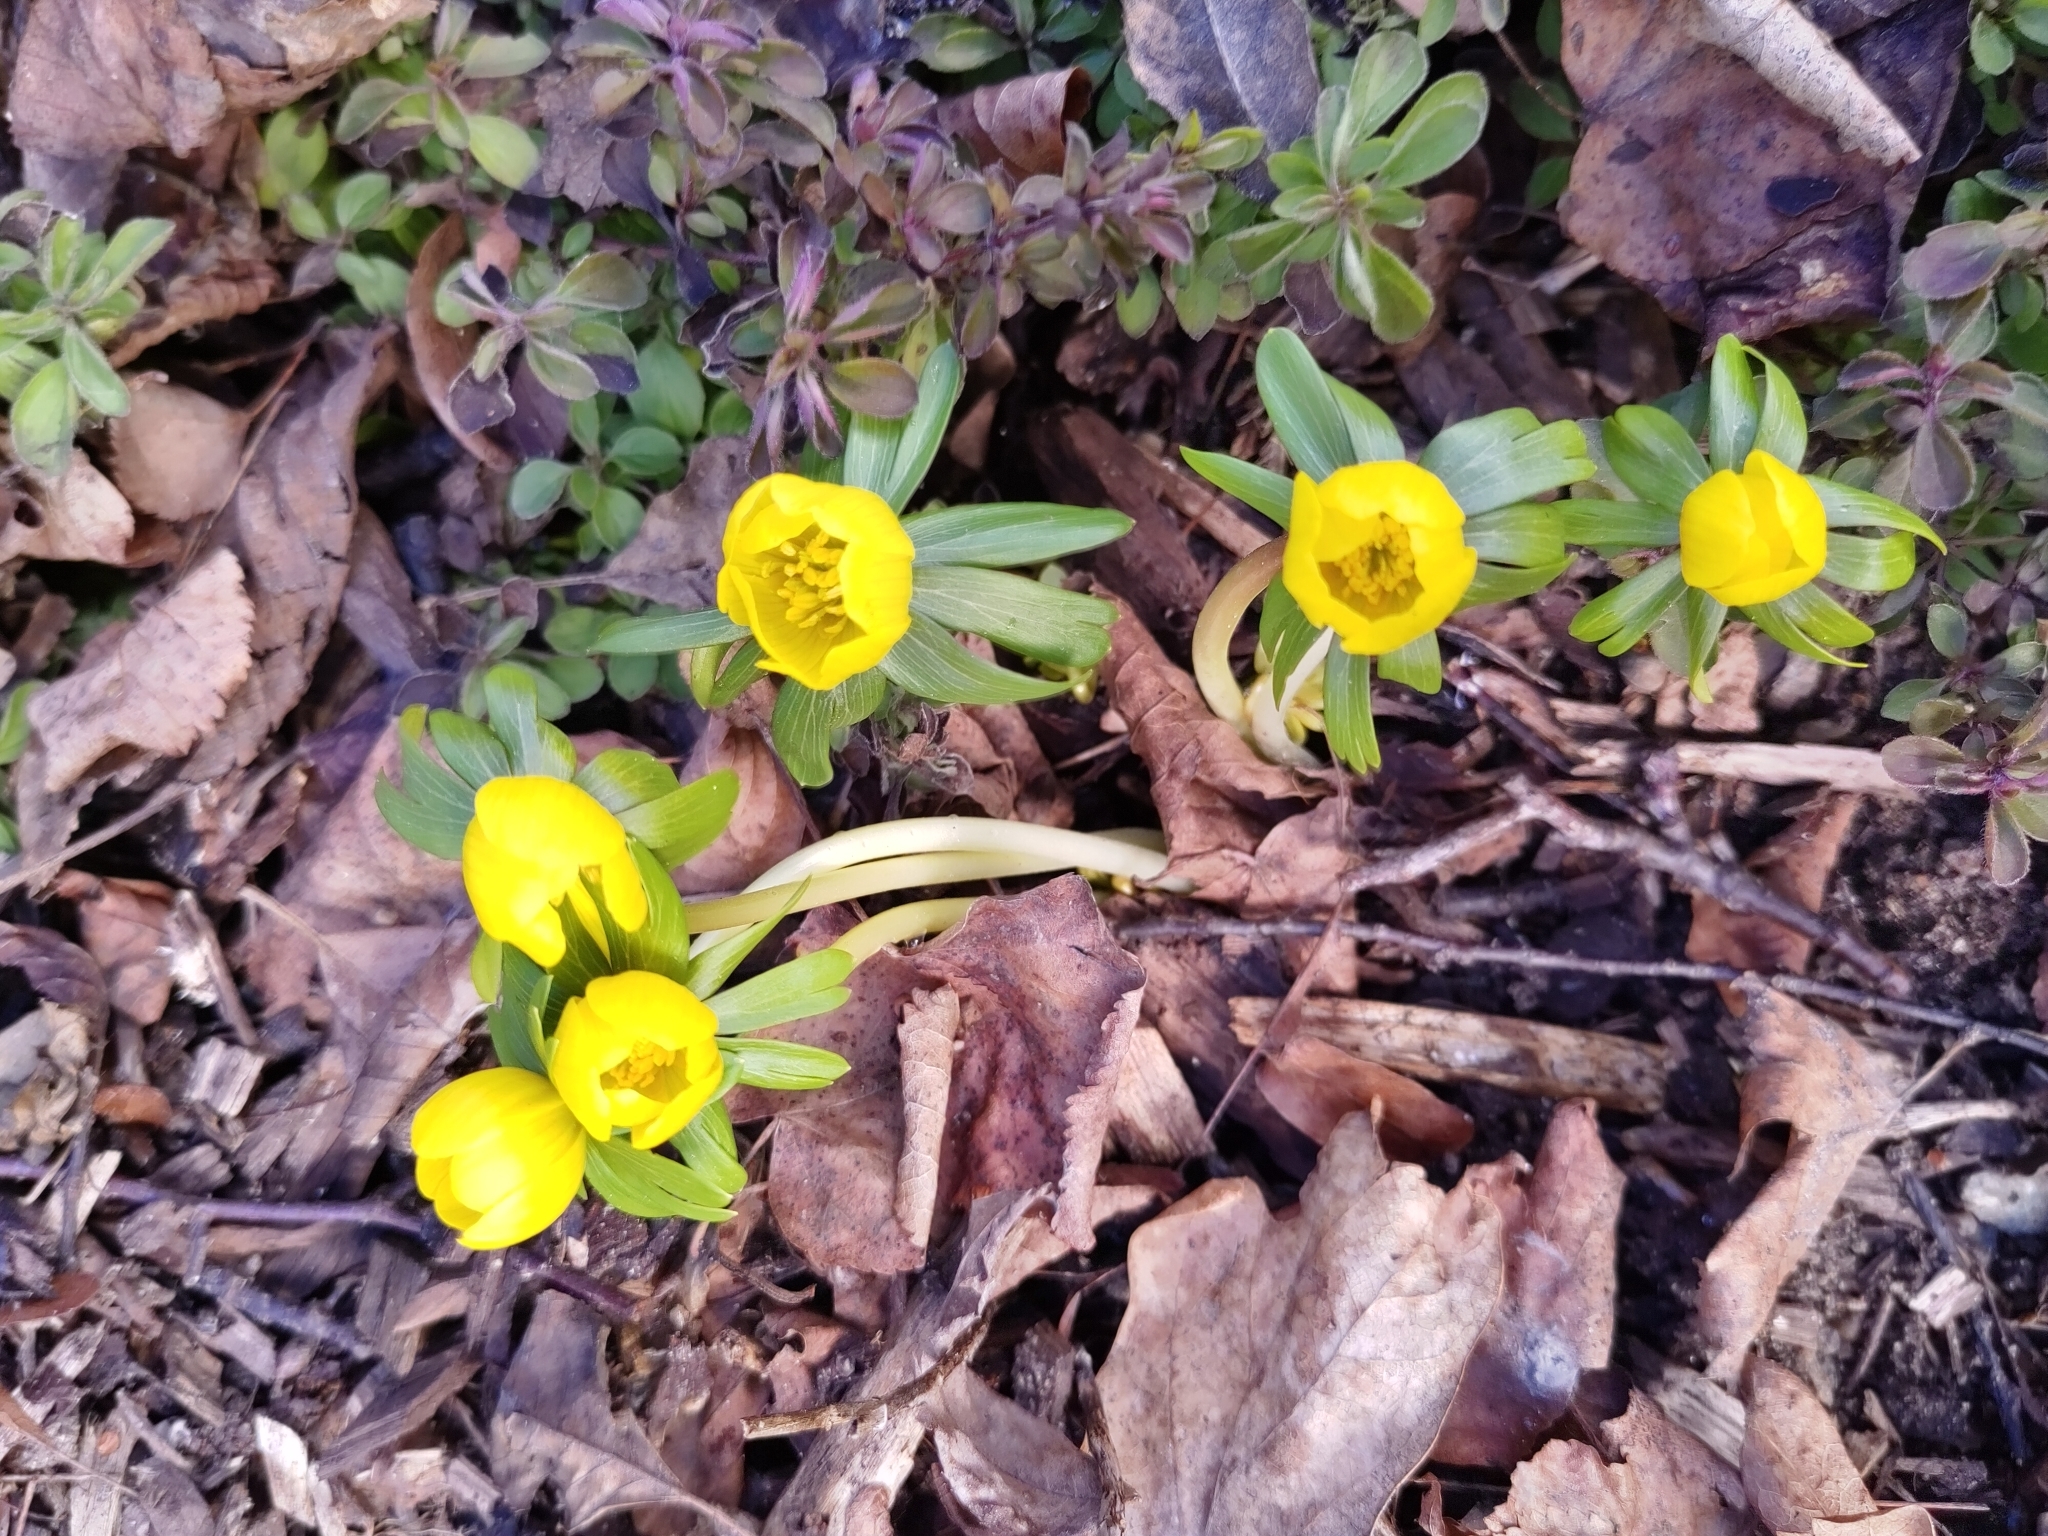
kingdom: Plantae
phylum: Tracheophyta
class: Magnoliopsida
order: Ranunculales
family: Ranunculaceae
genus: Eranthis
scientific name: Eranthis hyemalis
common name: Winter aconite
